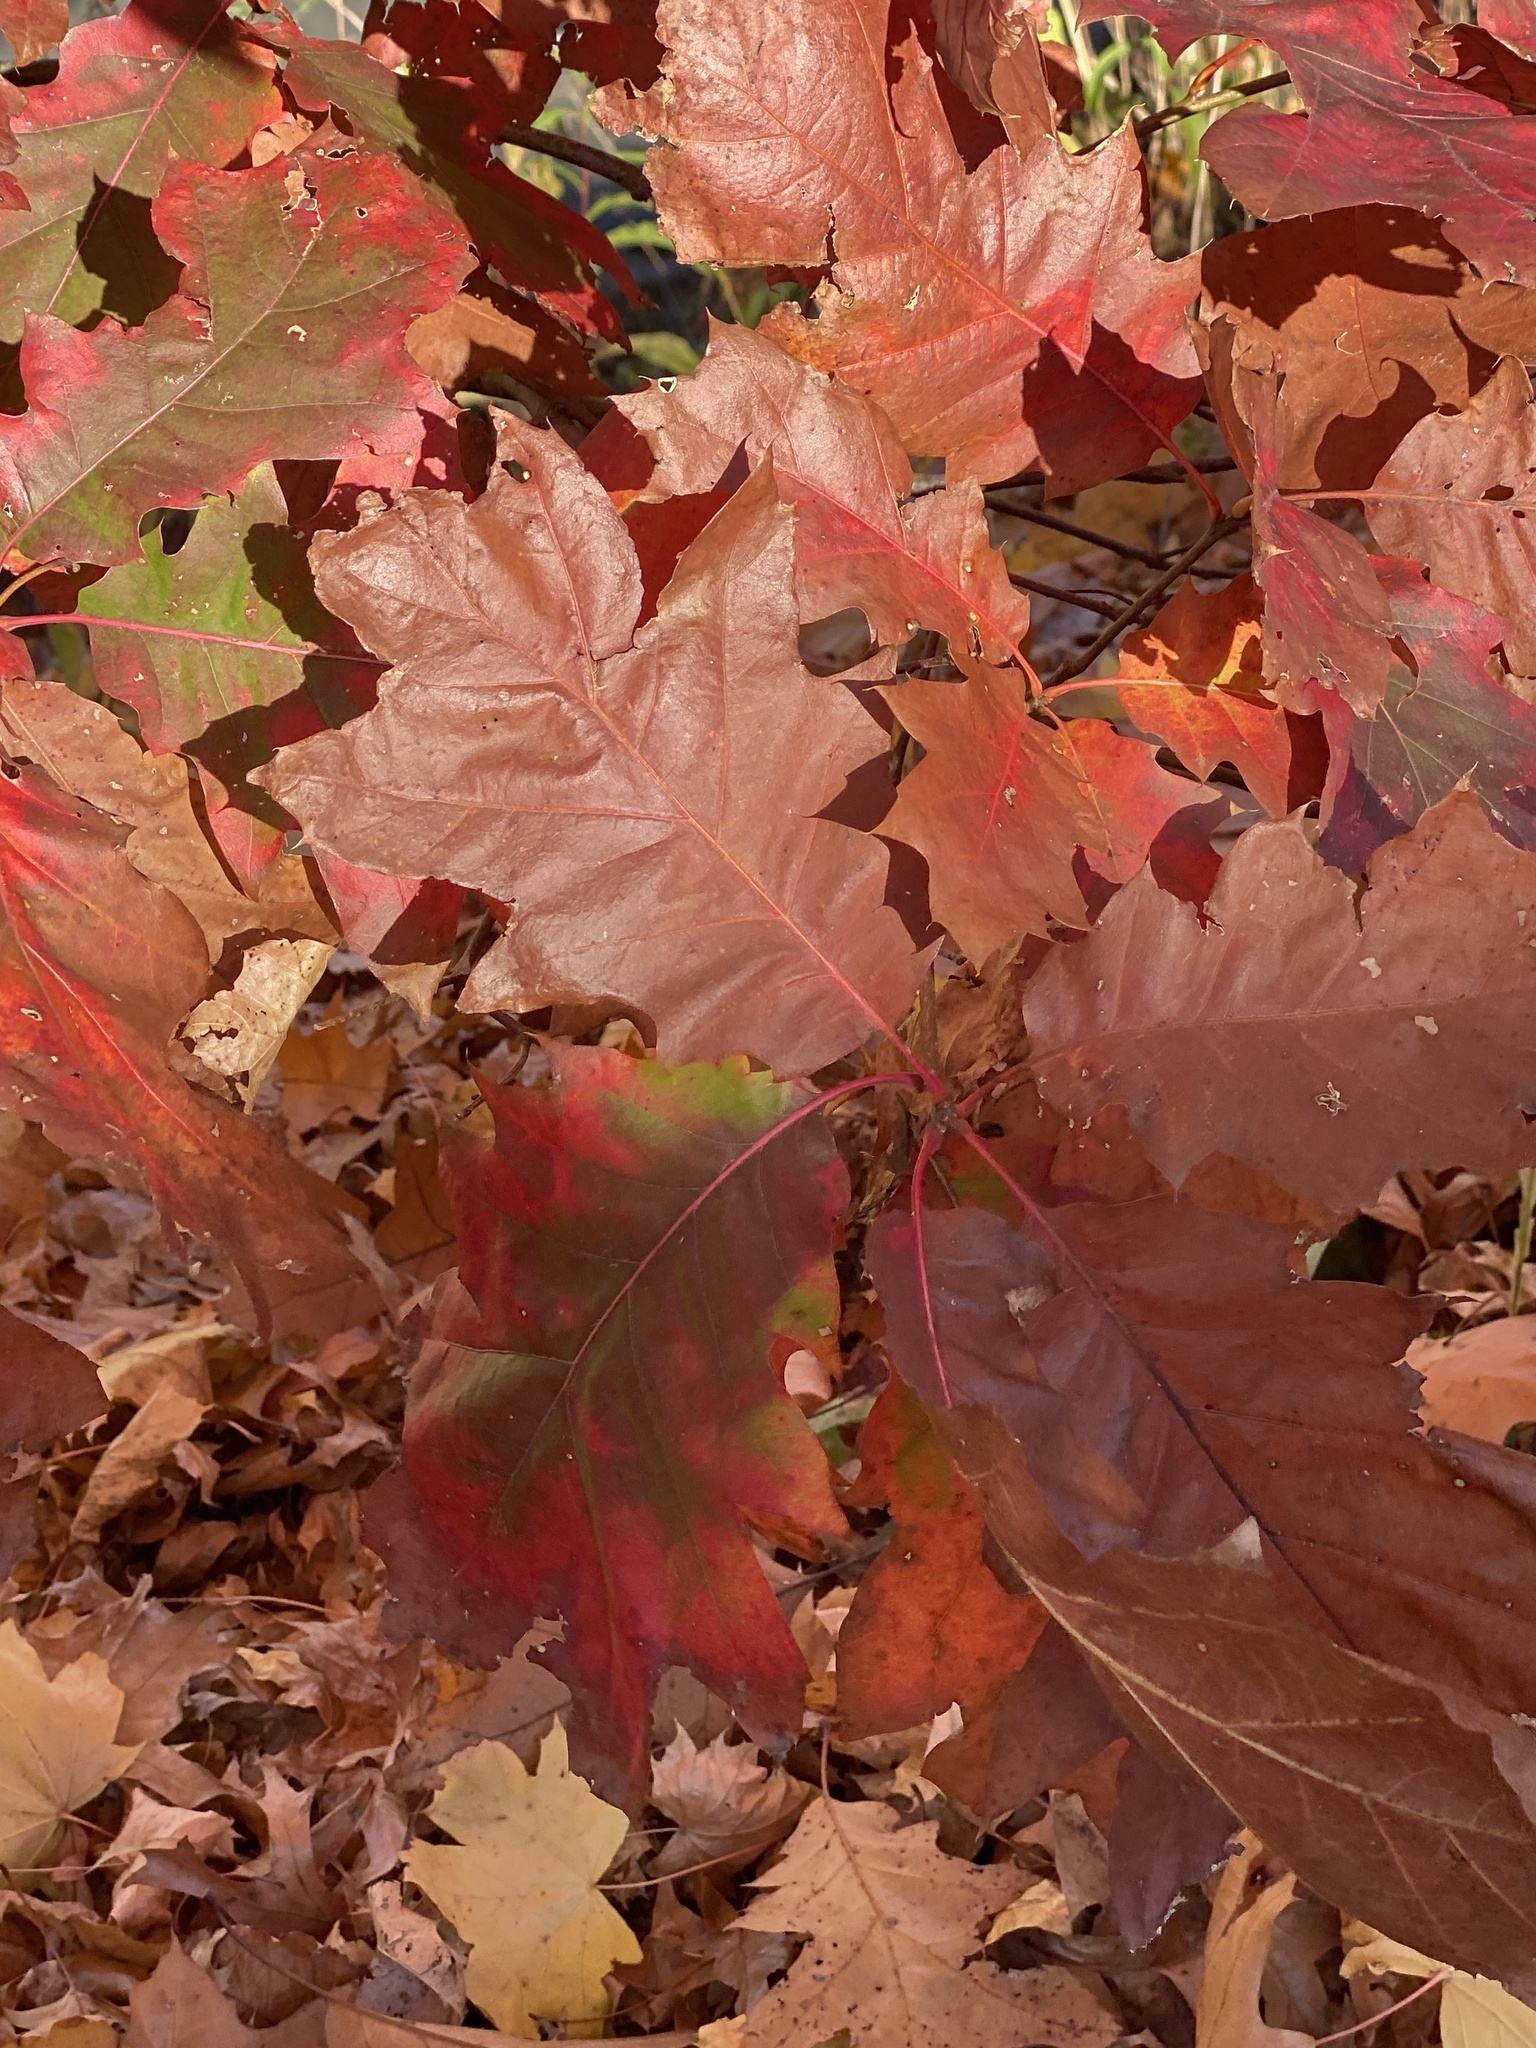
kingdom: Plantae
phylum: Tracheophyta
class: Magnoliopsida
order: Fagales
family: Fagaceae
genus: Quercus
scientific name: Quercus rubra
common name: Red oak
